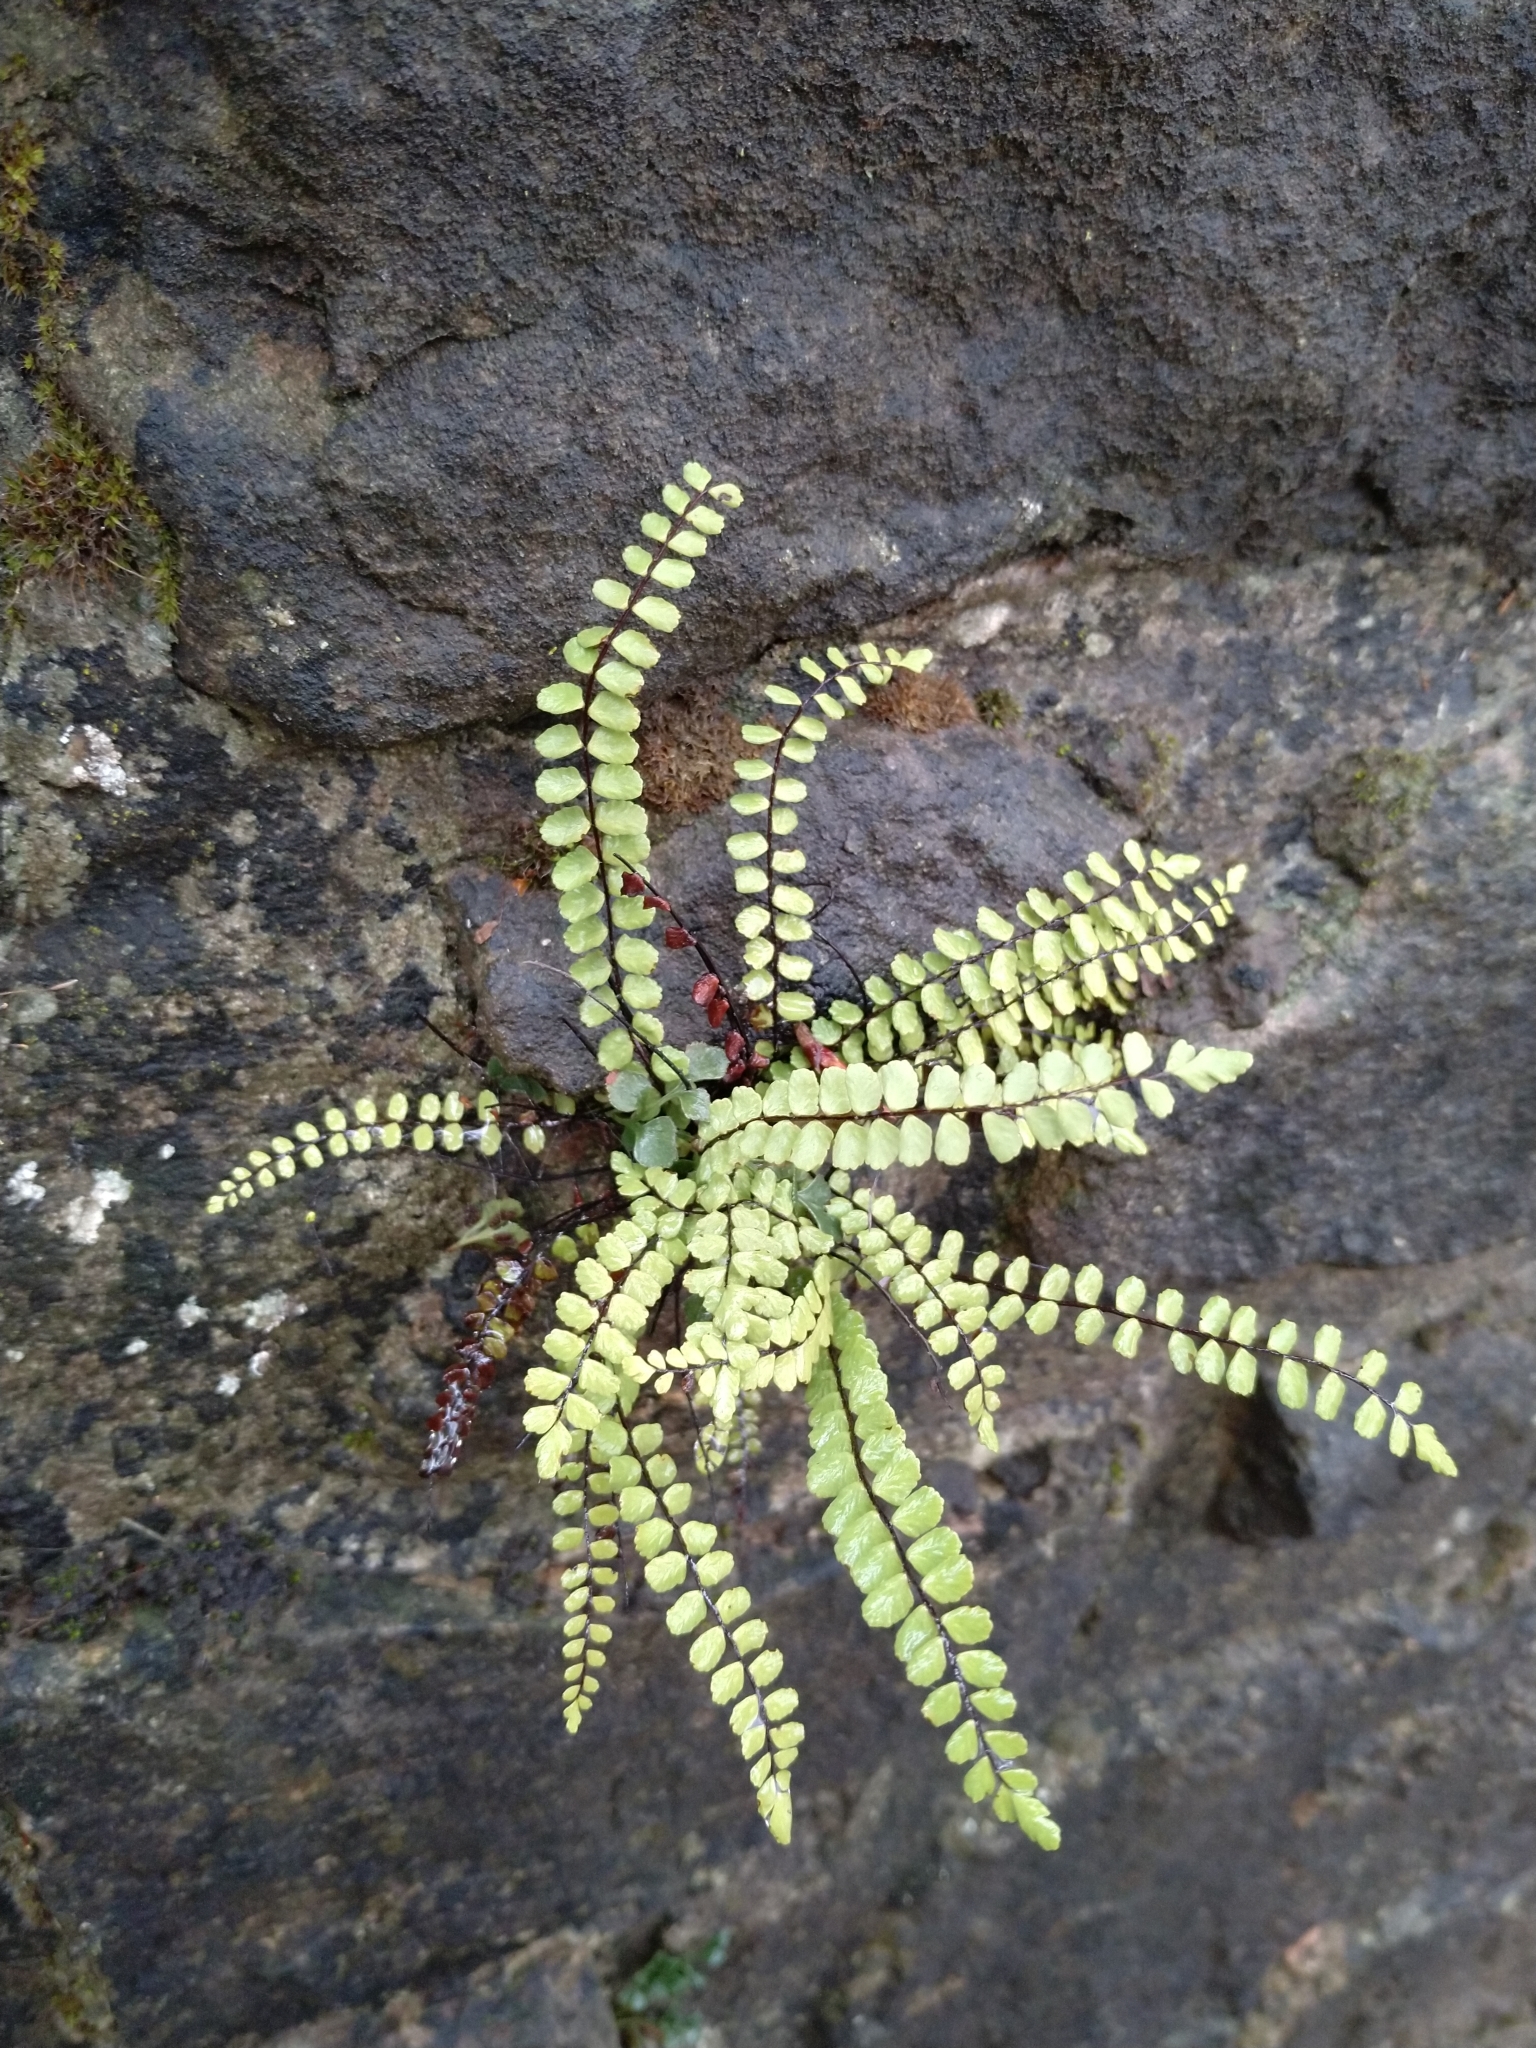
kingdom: Plantae
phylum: Tracheophyta
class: Polypodiopsida
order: Polypodiales
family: Aspleniaceae
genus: Asplenium
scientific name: Asplenium trichomanes
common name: Maidenhair spleenwort
